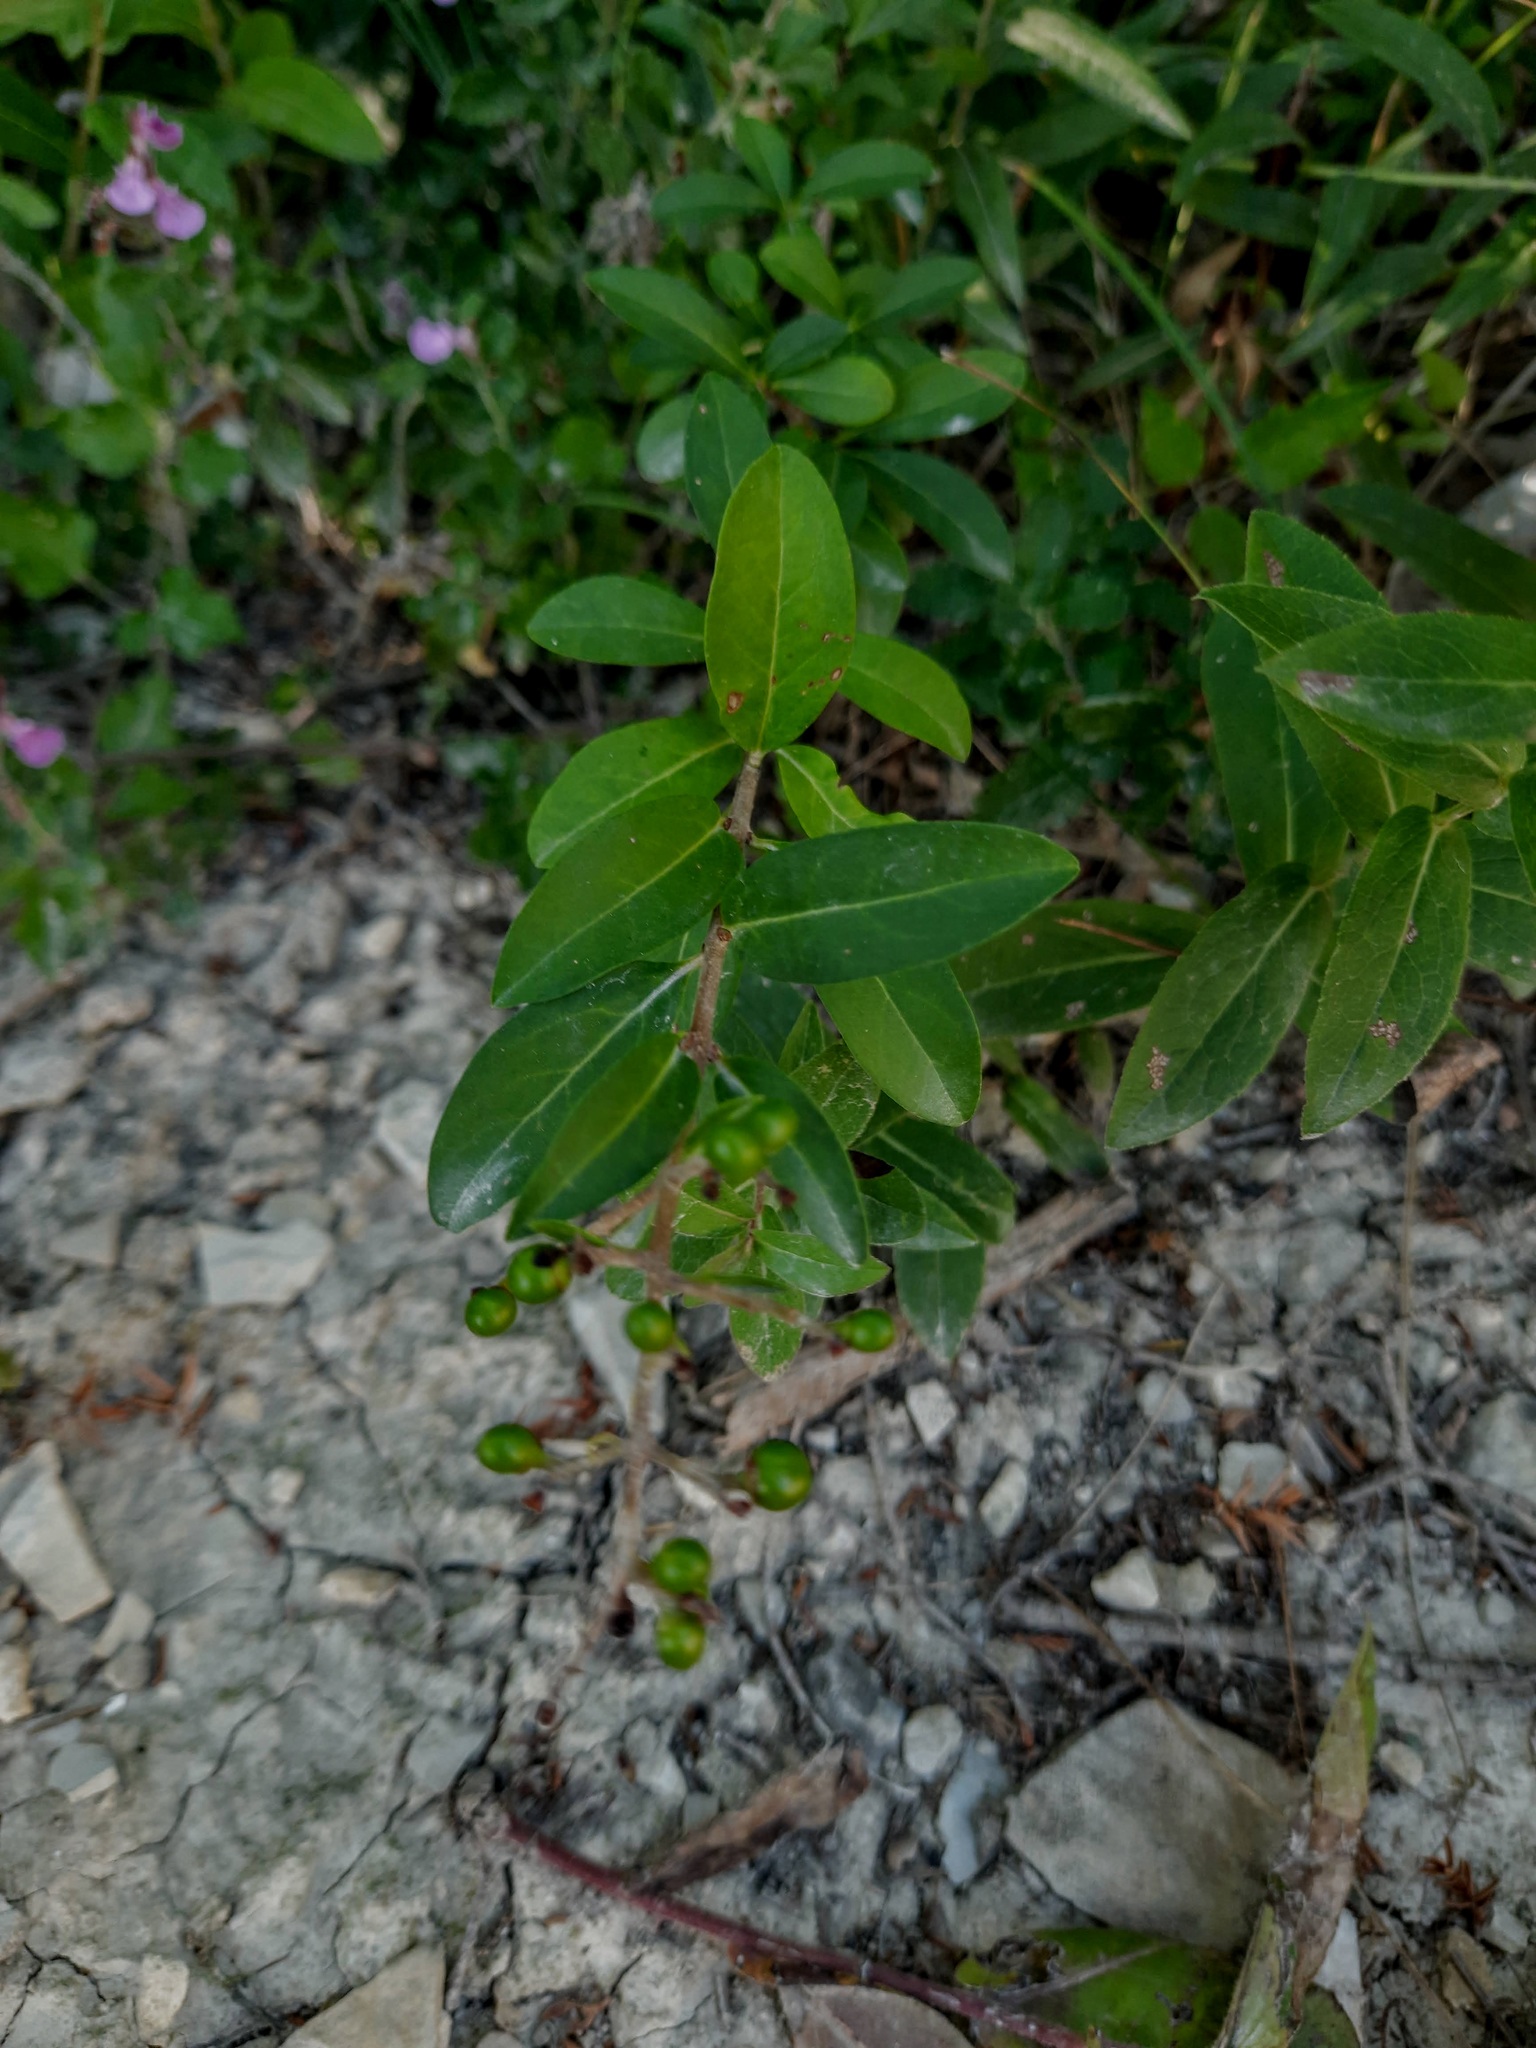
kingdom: Plantae
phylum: Tracheophyta
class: Magnoliopsida
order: Lamiales
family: Oleaceae
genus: Ligustrum
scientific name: Ligustrum vulgare
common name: Wild privet
